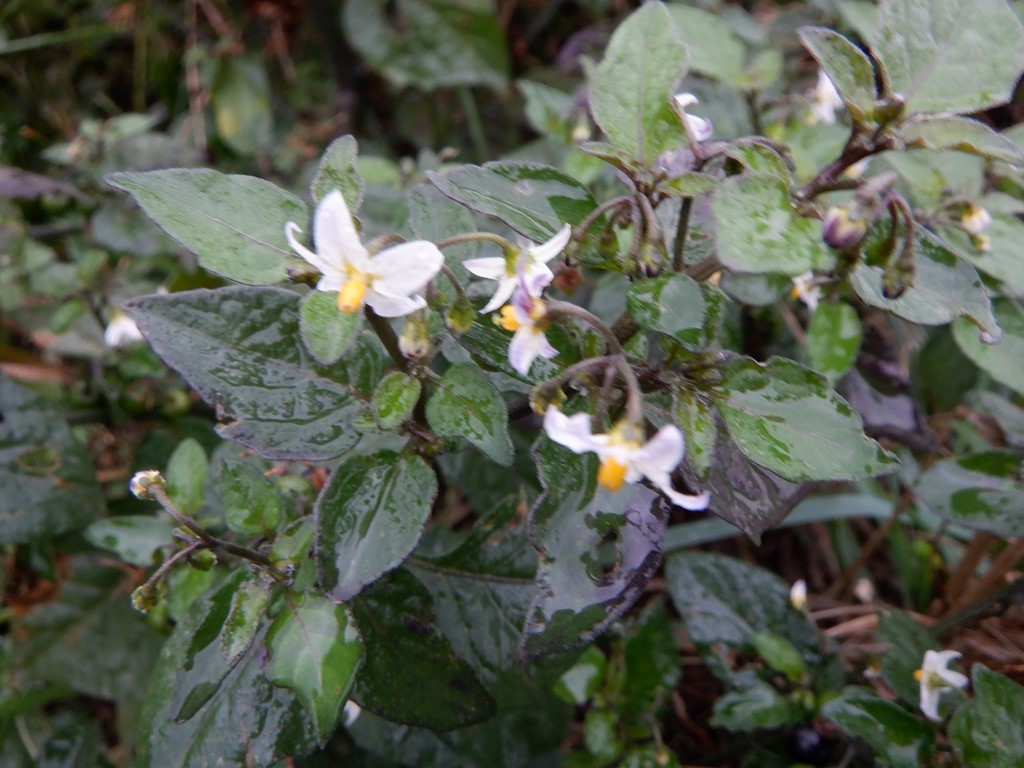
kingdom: Plantae
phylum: Tracheophyta
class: Magnoliopsida
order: Solanales
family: Solanaceae
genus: Solanum
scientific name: Solanum nigrum
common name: Black nightshade
